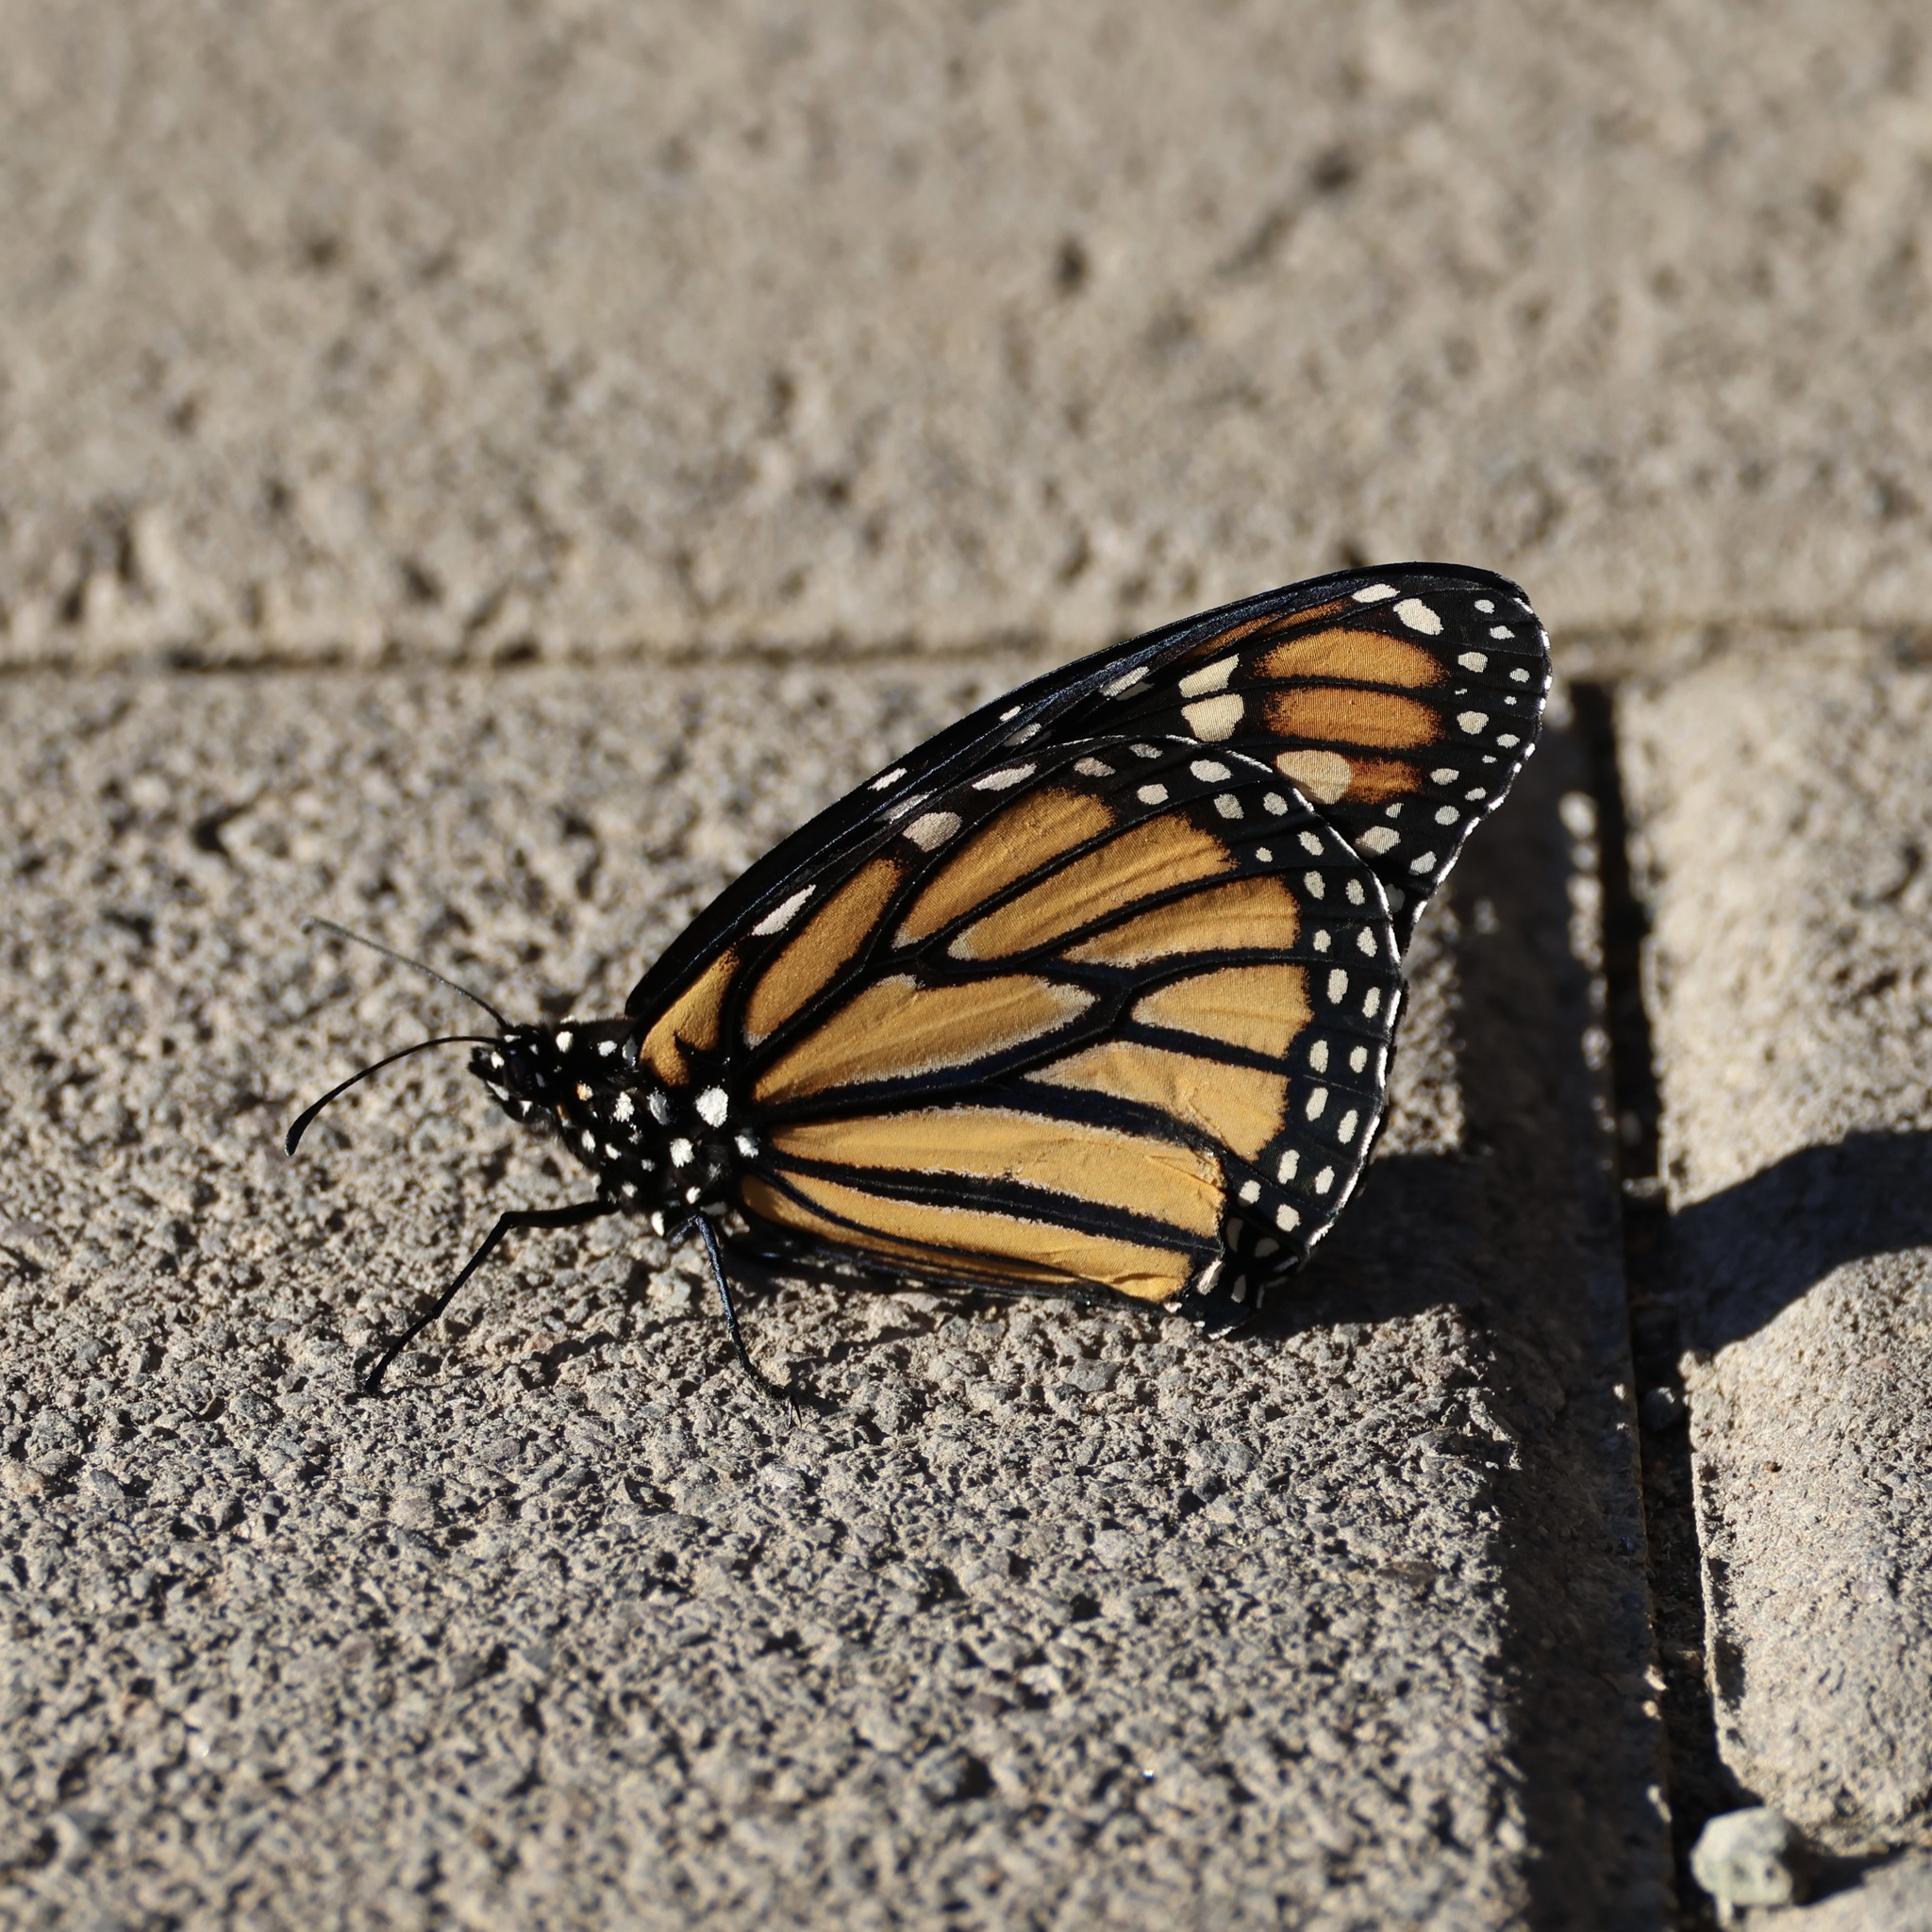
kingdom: Animalia
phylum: Arthropoda
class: Insecta
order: Lepidoptera
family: Nymphalidae
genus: Danaus
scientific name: Danaus plexippus
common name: Monarch
